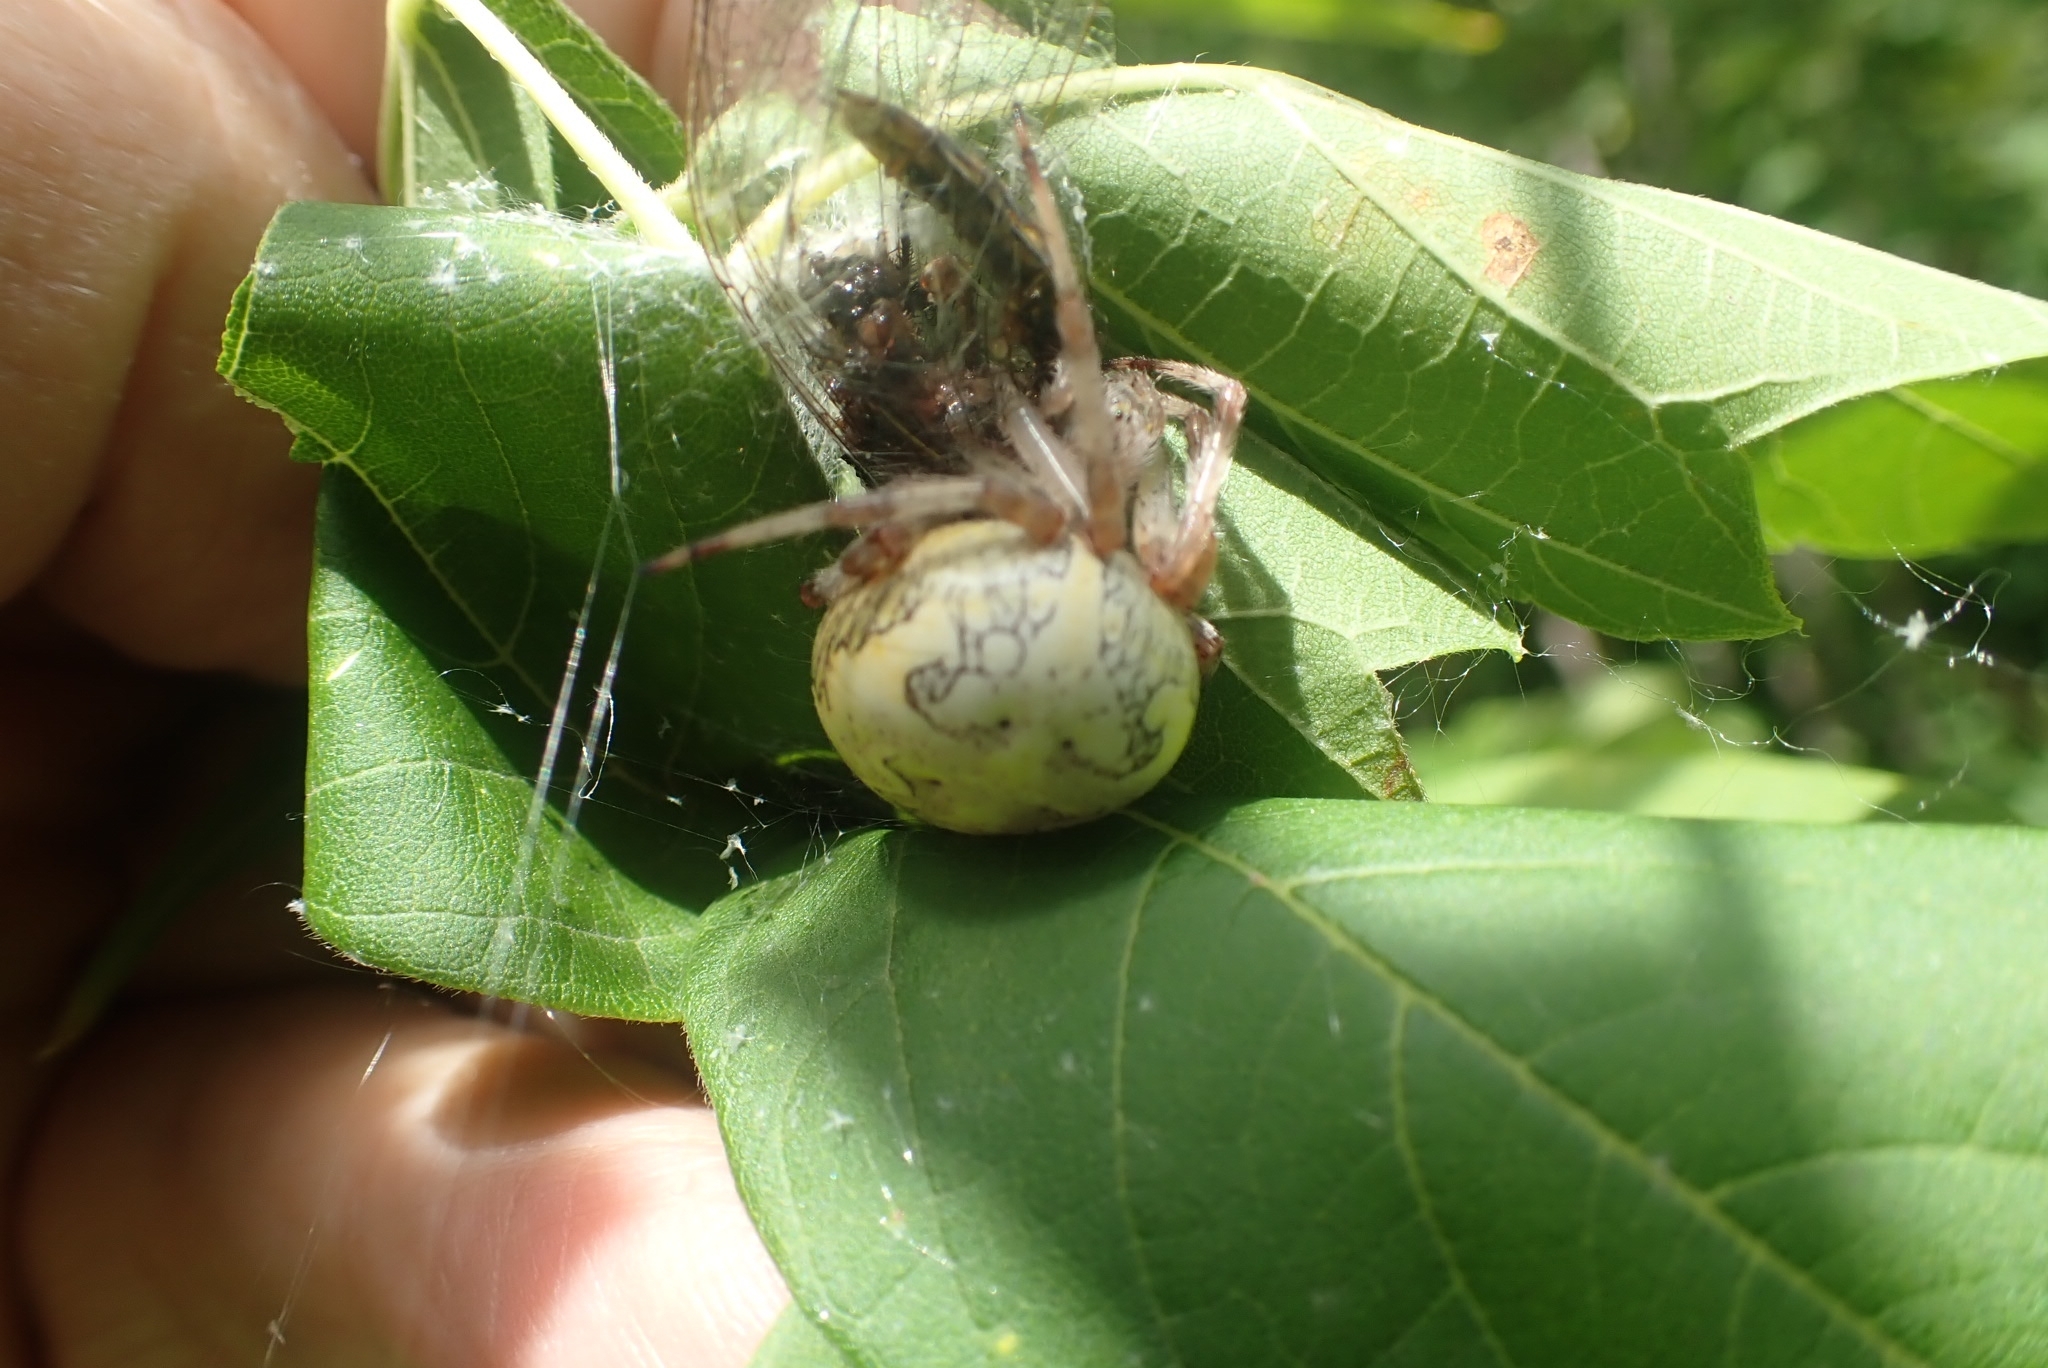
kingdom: Animalia
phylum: Arthropoda
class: Arachnida
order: Araneae
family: Araneidae
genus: Araneus
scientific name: Araneus marmoreus
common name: Marbled orbweaver
